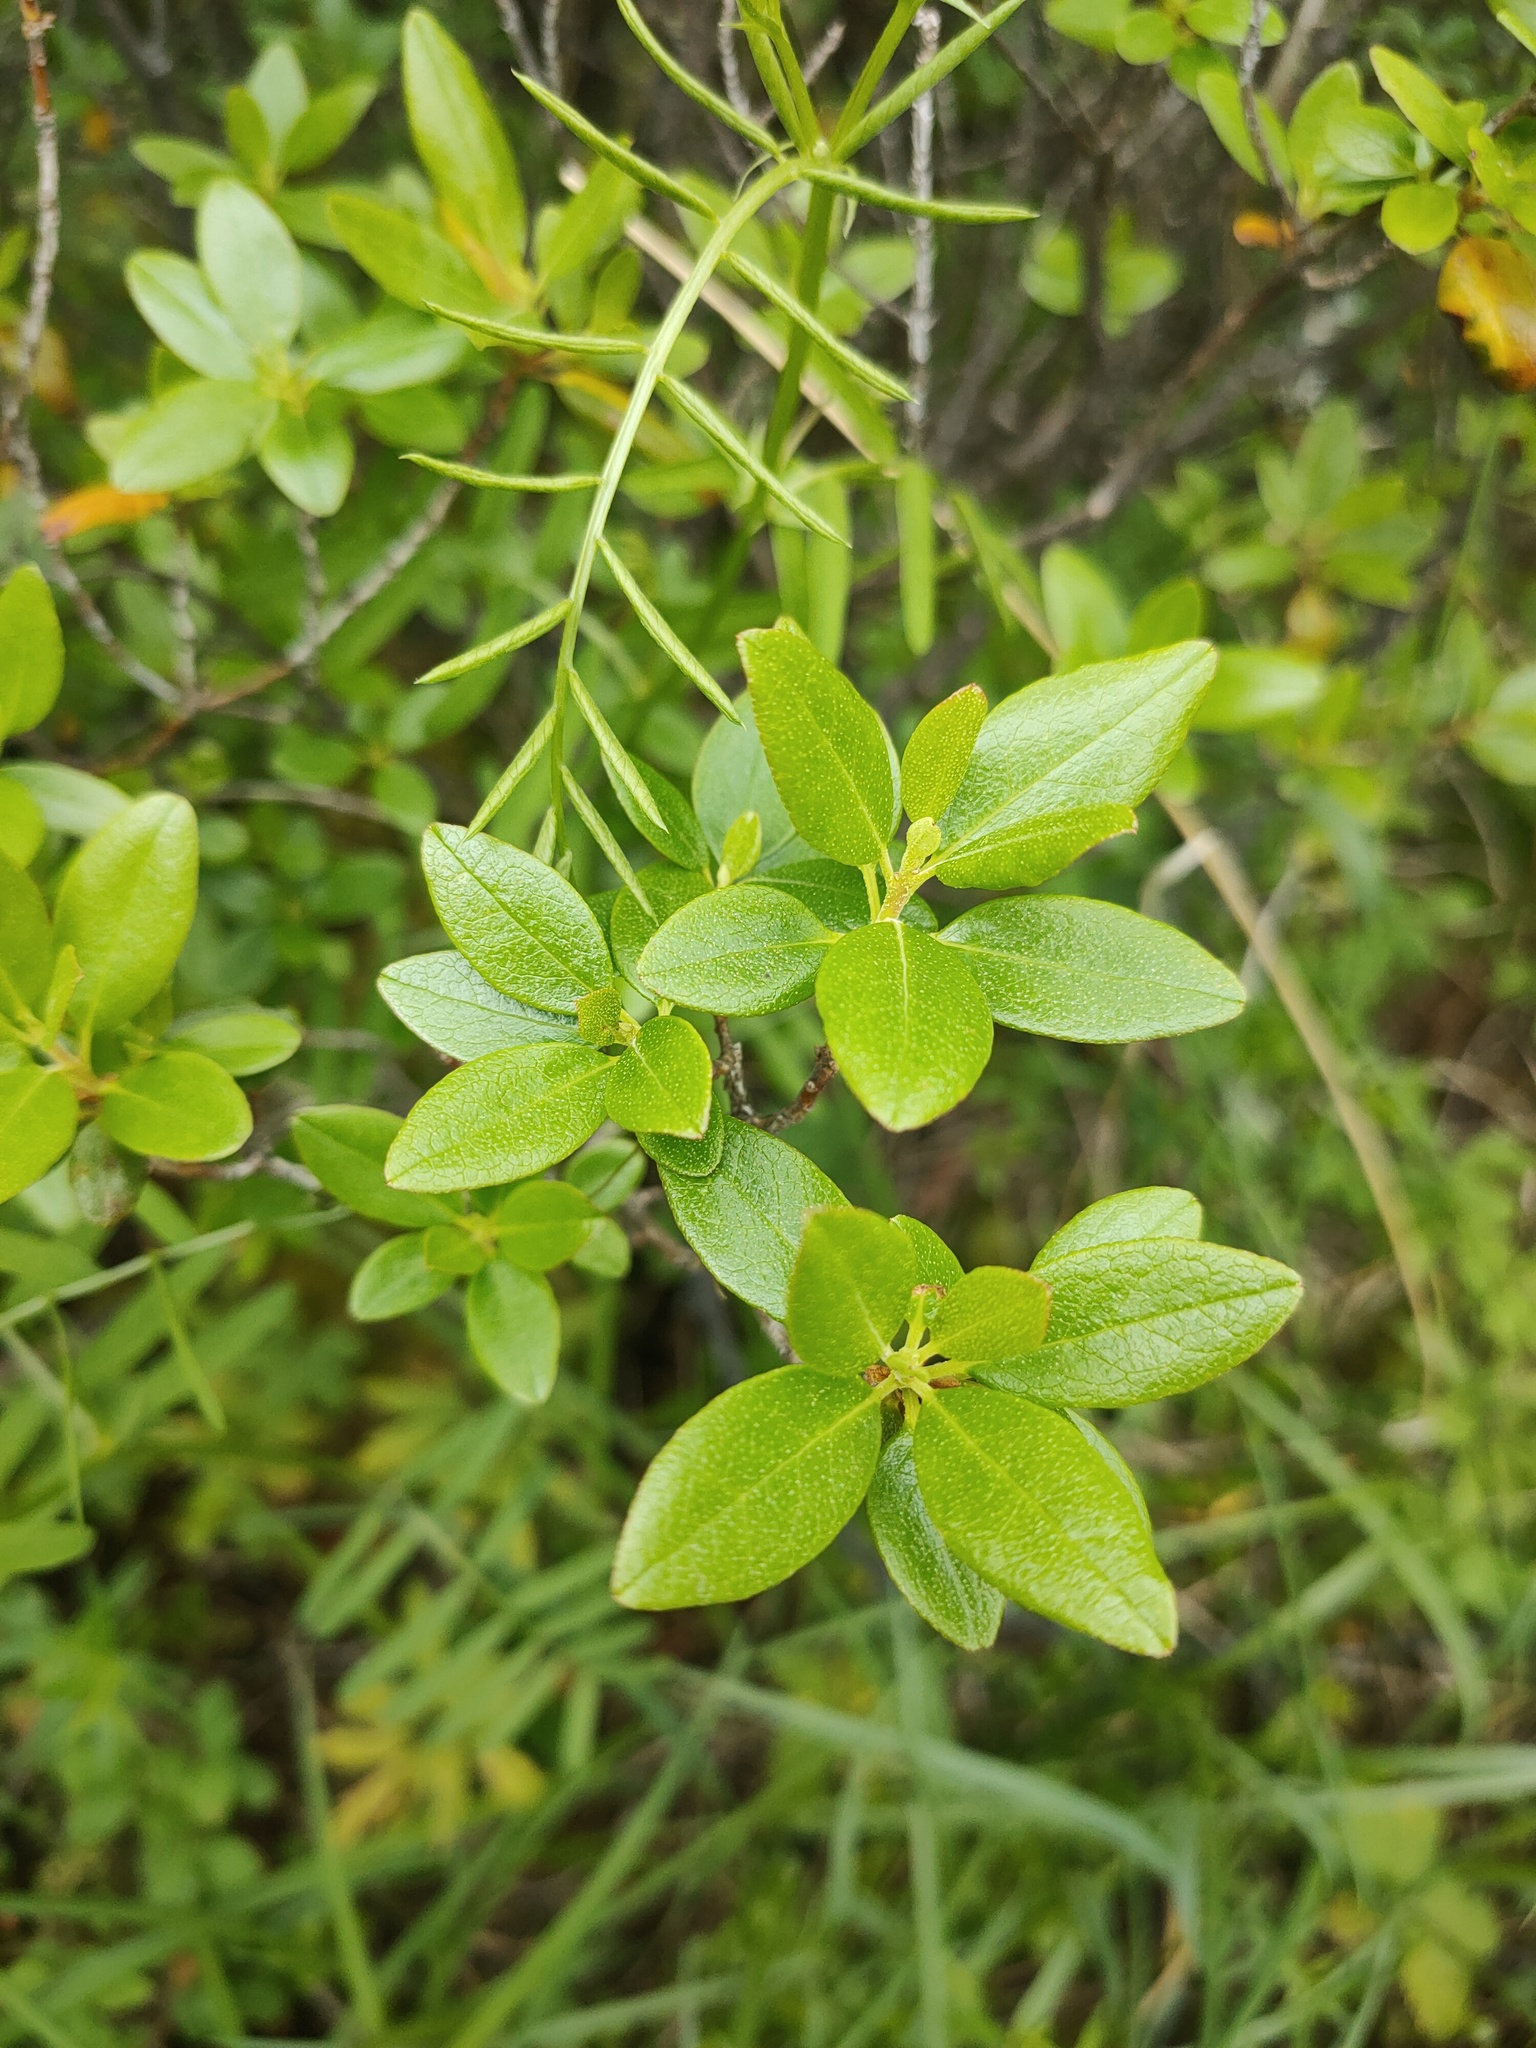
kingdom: Plantae
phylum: Tracheophyta
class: Magnoliopsida
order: Ericales
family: Ericaceae
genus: Rhododendron
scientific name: Rhododendron dauricum
